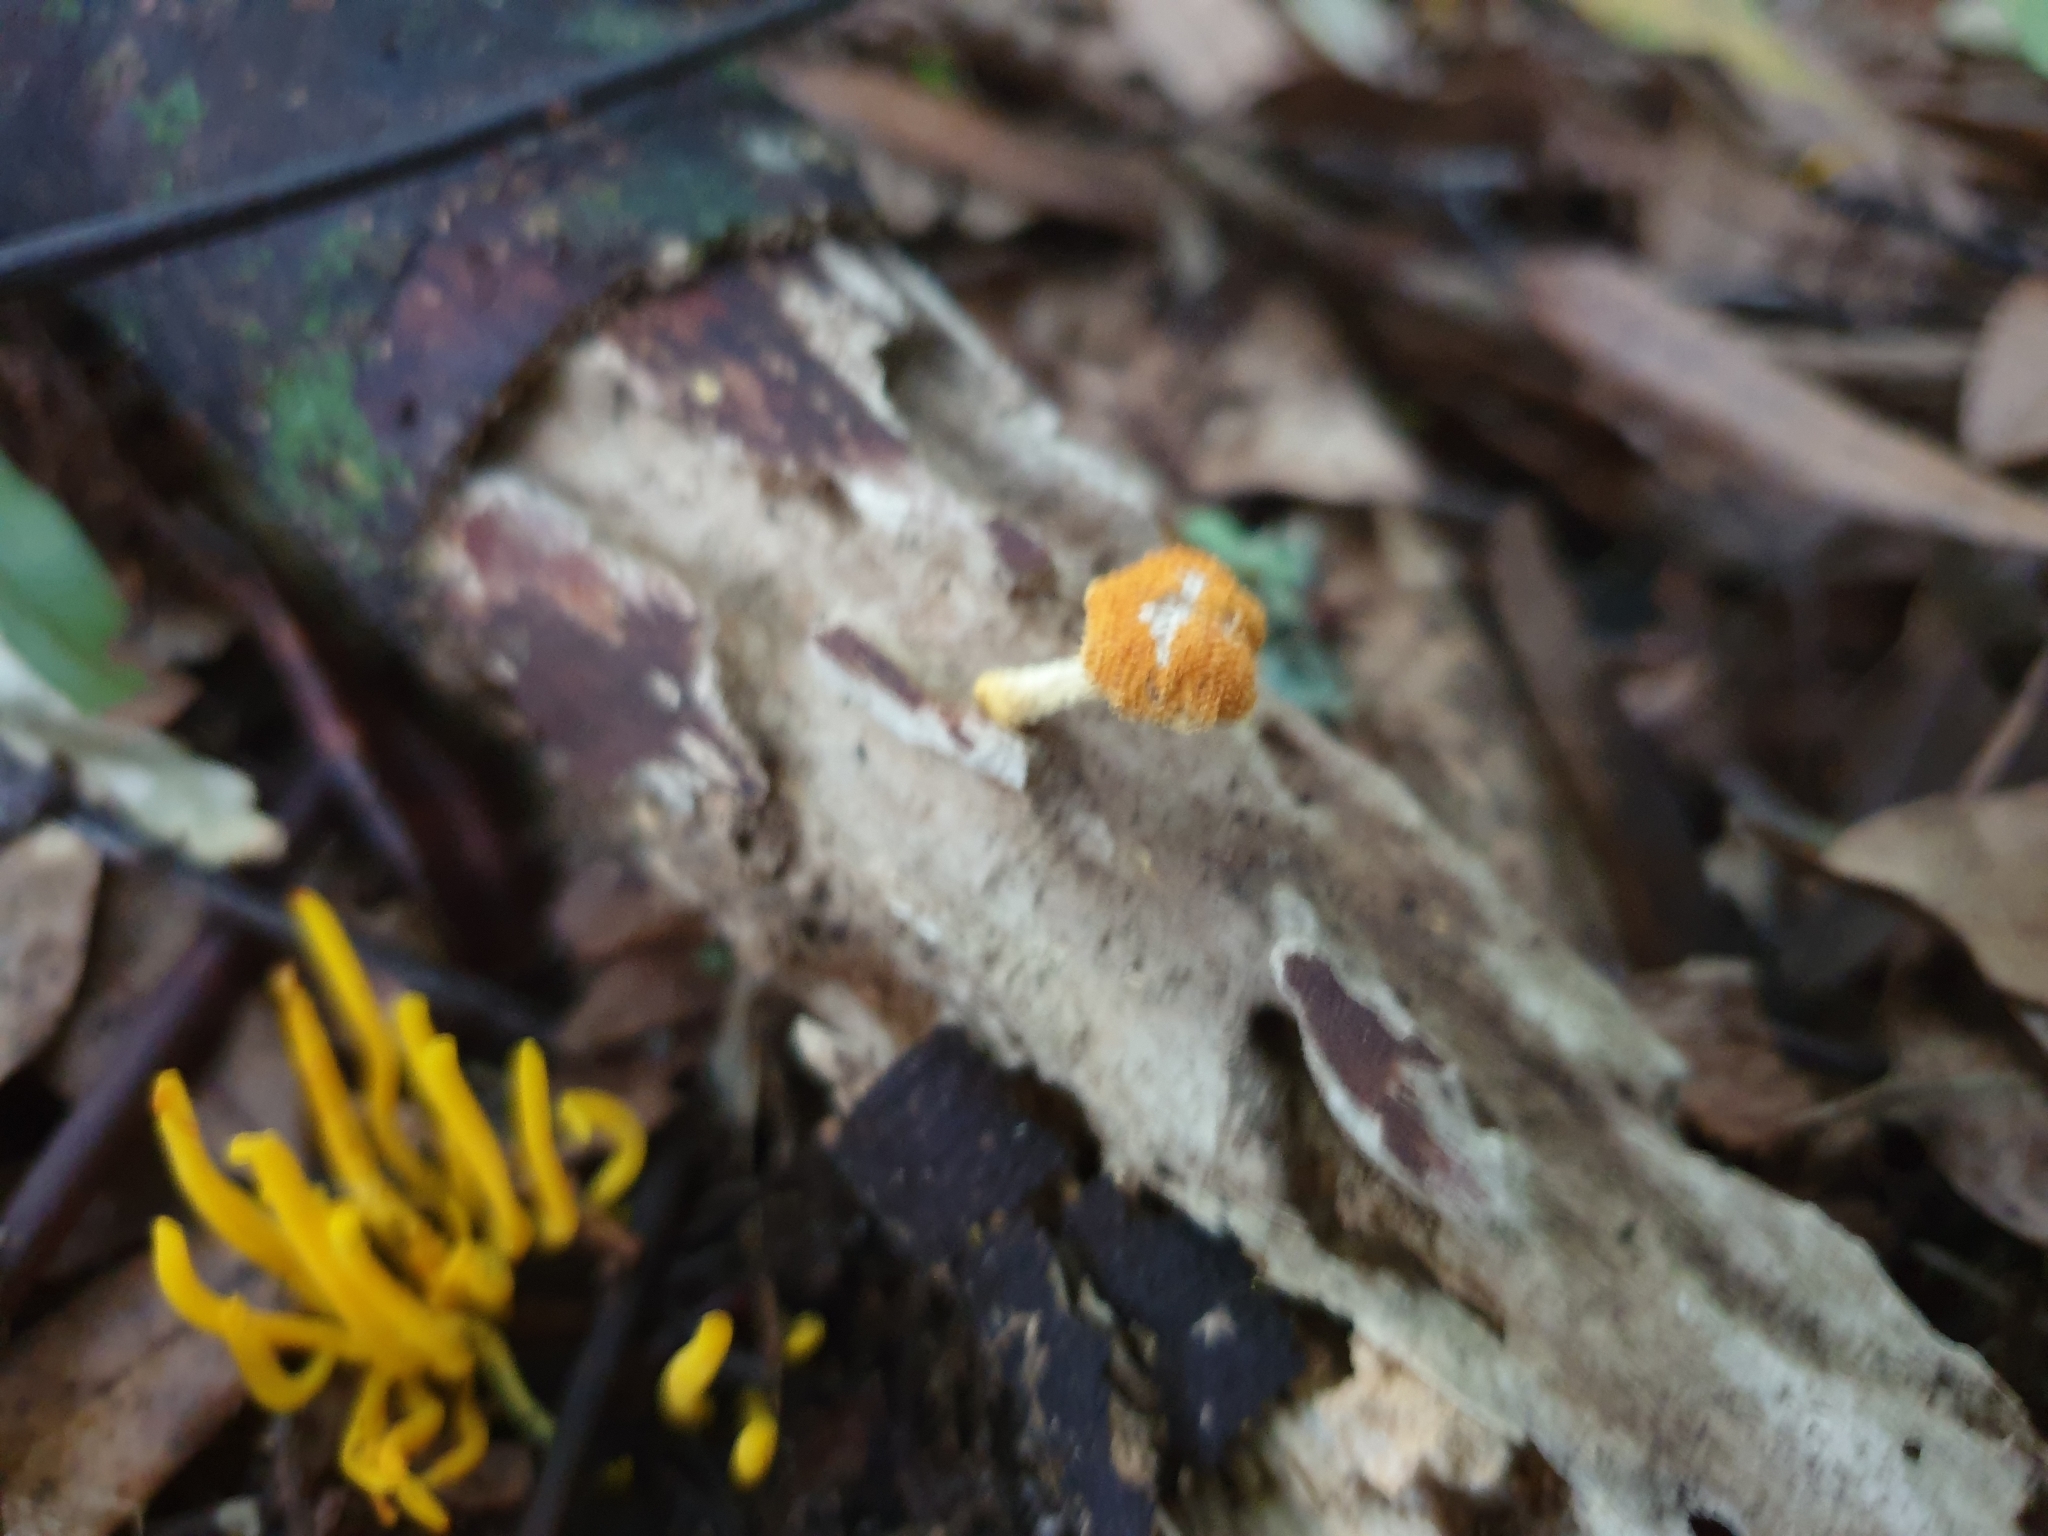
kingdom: Fungi
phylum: Basidiomycota
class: Agaricomycetes
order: Agaricales
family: Physalacriaceae
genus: Cyptotrama
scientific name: Cyptotrama asprata
